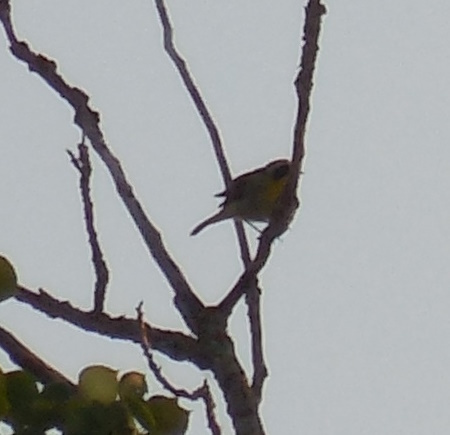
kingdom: Animalia
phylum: Chordata
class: Aves
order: Passeriformes
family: Parulidae
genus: Geothlypis
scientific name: Geothlypis trichas
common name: Common yellowthroat
